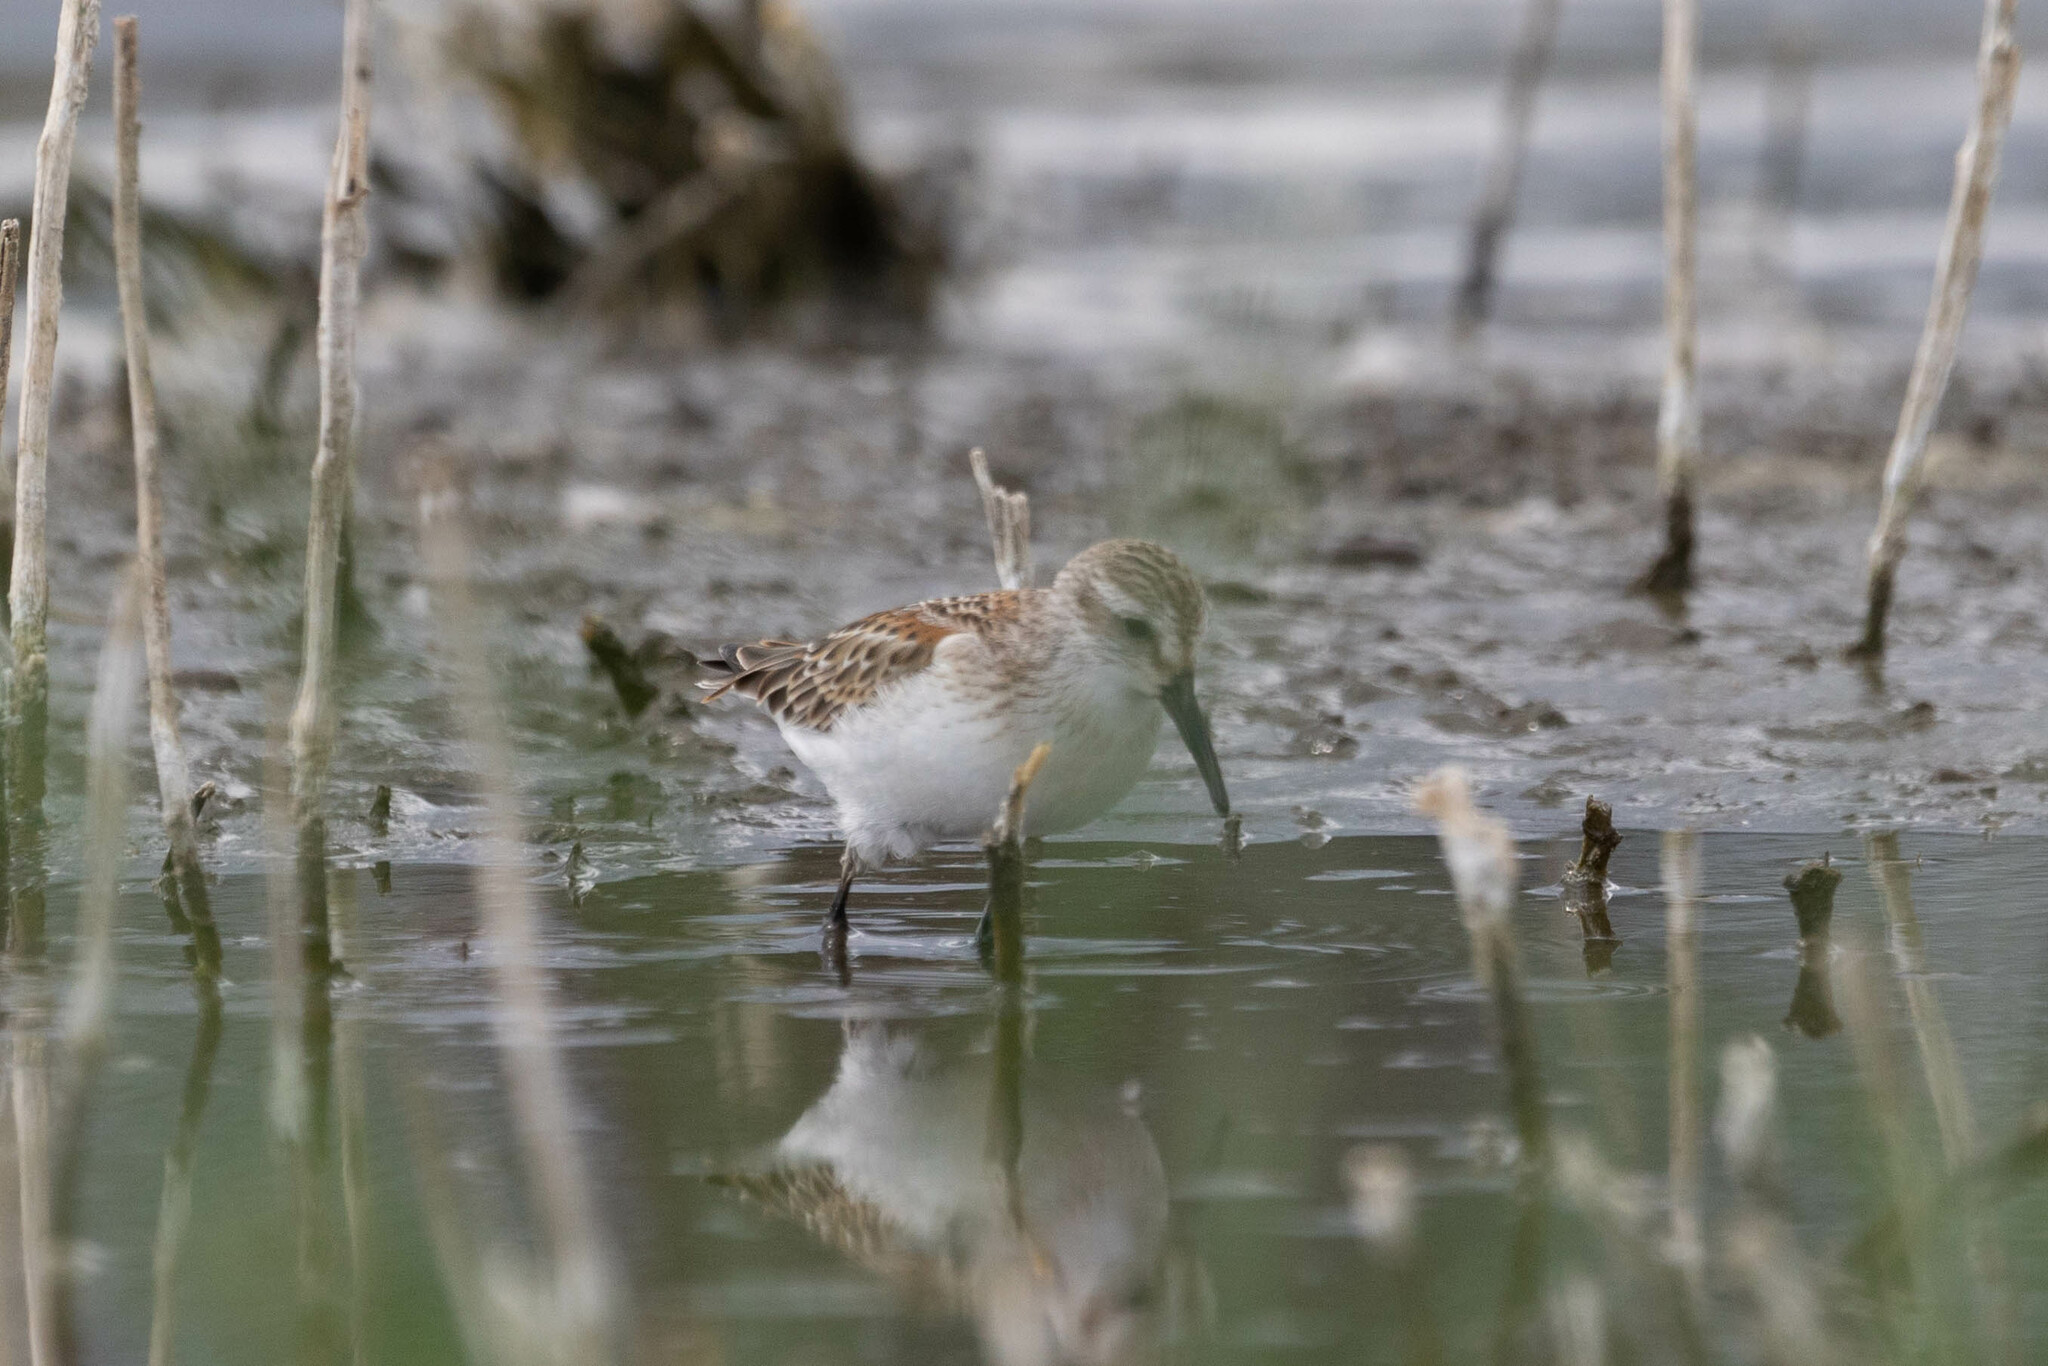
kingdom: Animalia
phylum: Chordata
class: Aves
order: Charadriiformes
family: Scolopacidae
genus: Calidris
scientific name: Calidris mauri
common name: Western sandpiper
